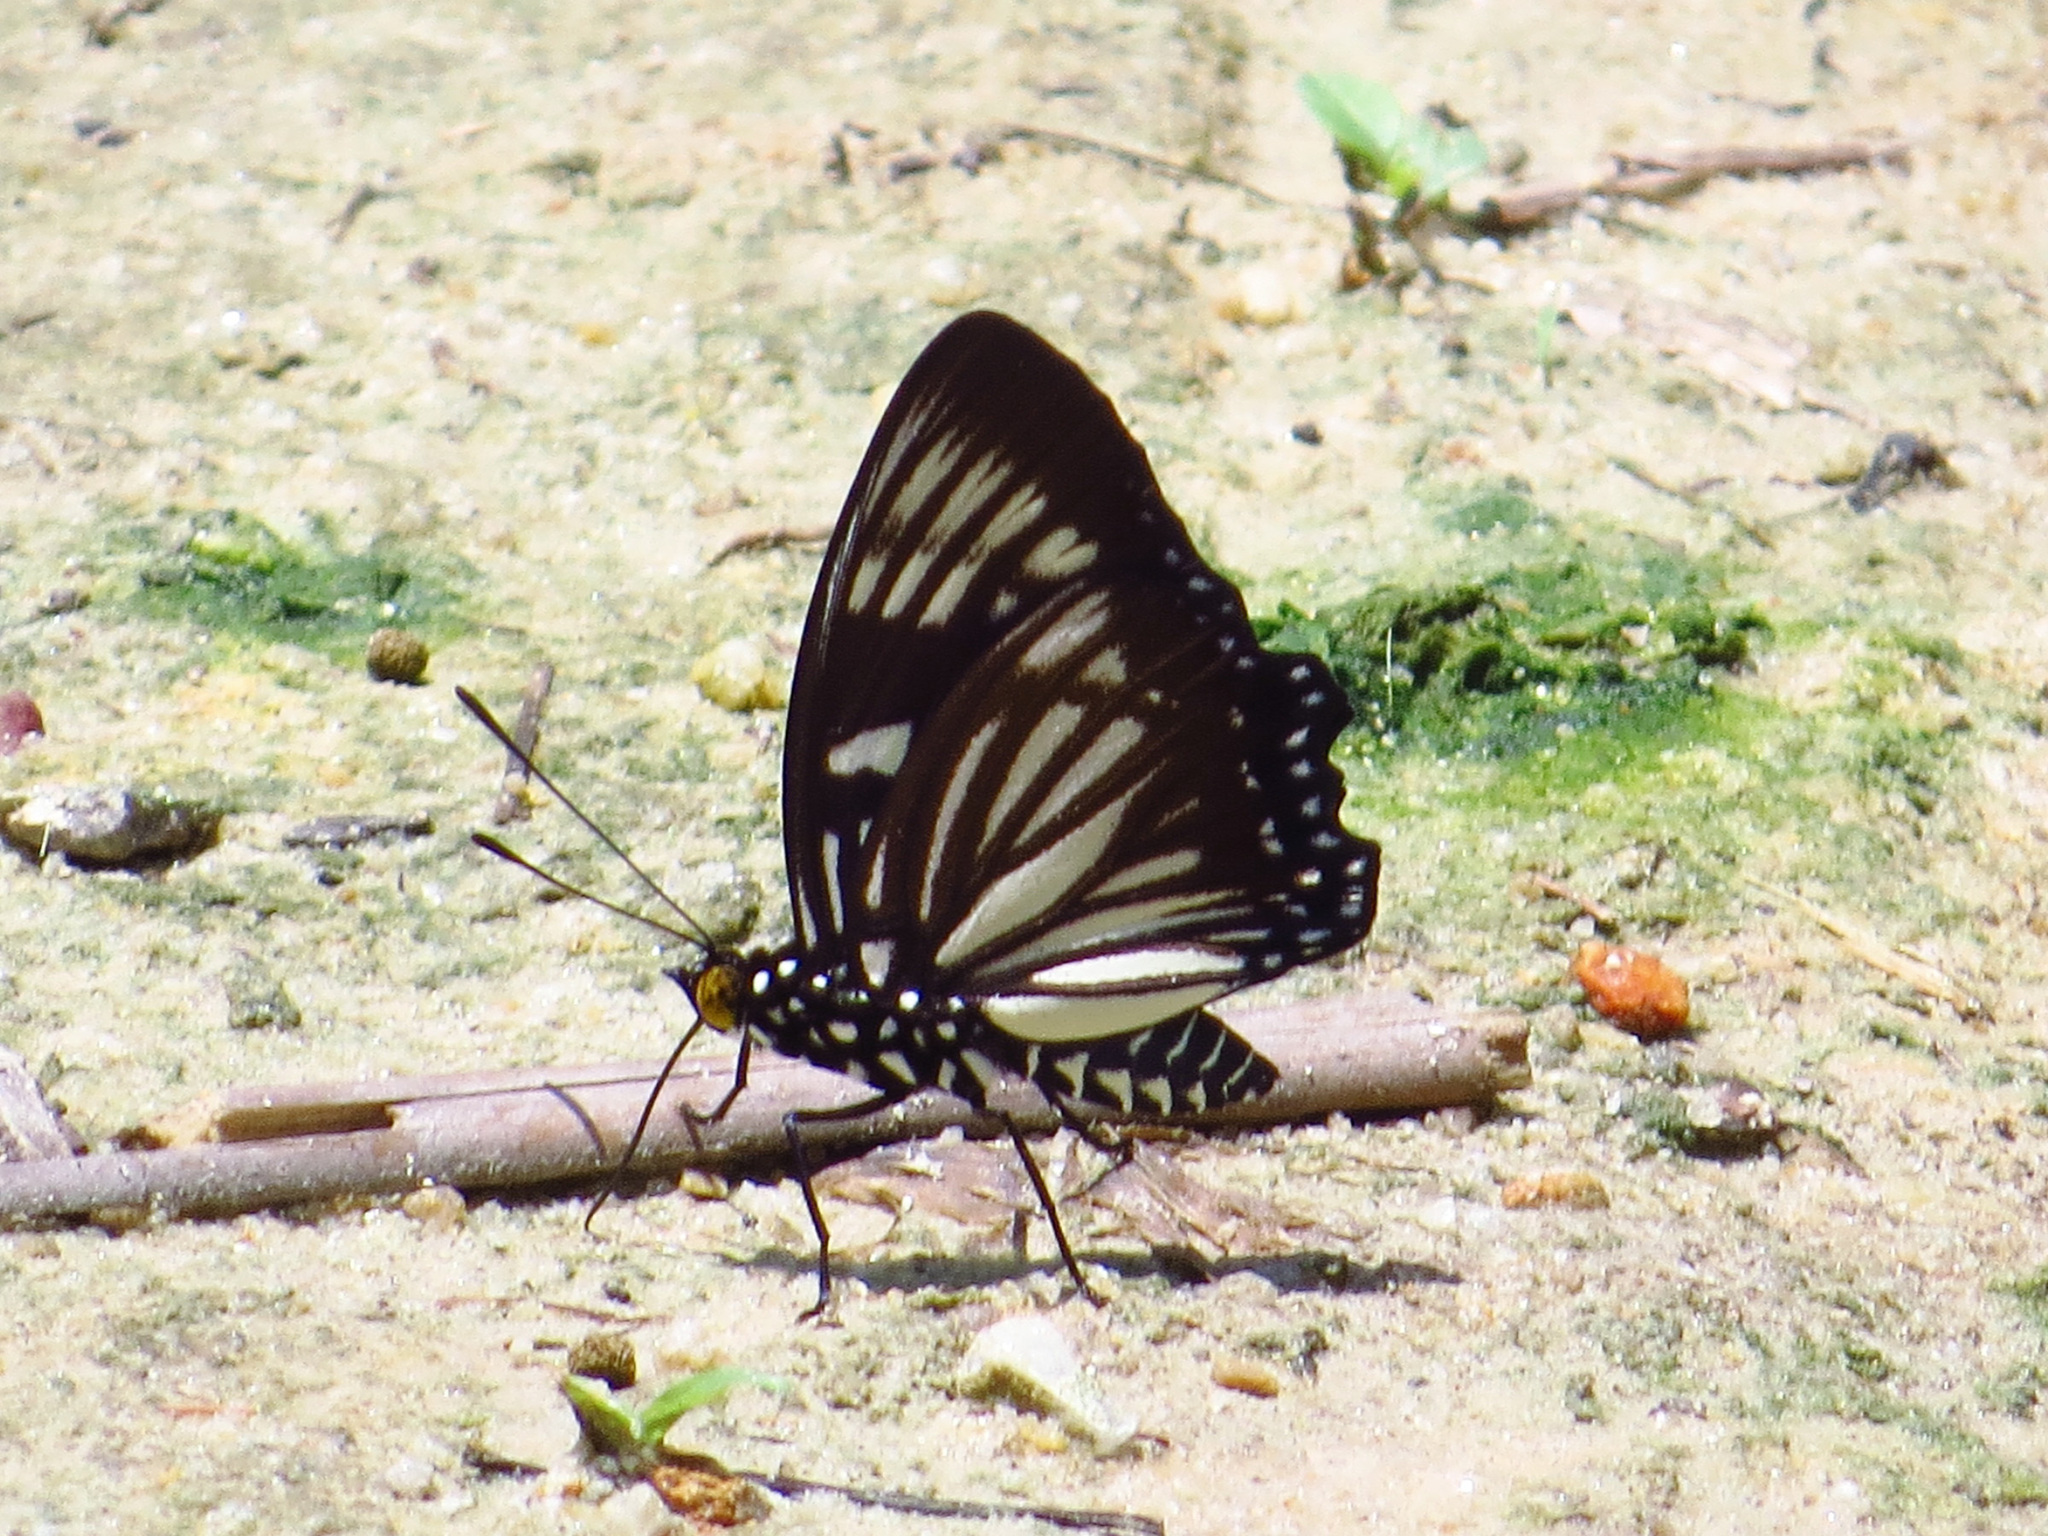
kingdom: Animalia
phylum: Arthropoda
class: Insecta
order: Lepidoptera
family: Nymphalidae
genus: Euripus
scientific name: Euripus nyctelius
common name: Courtesan
